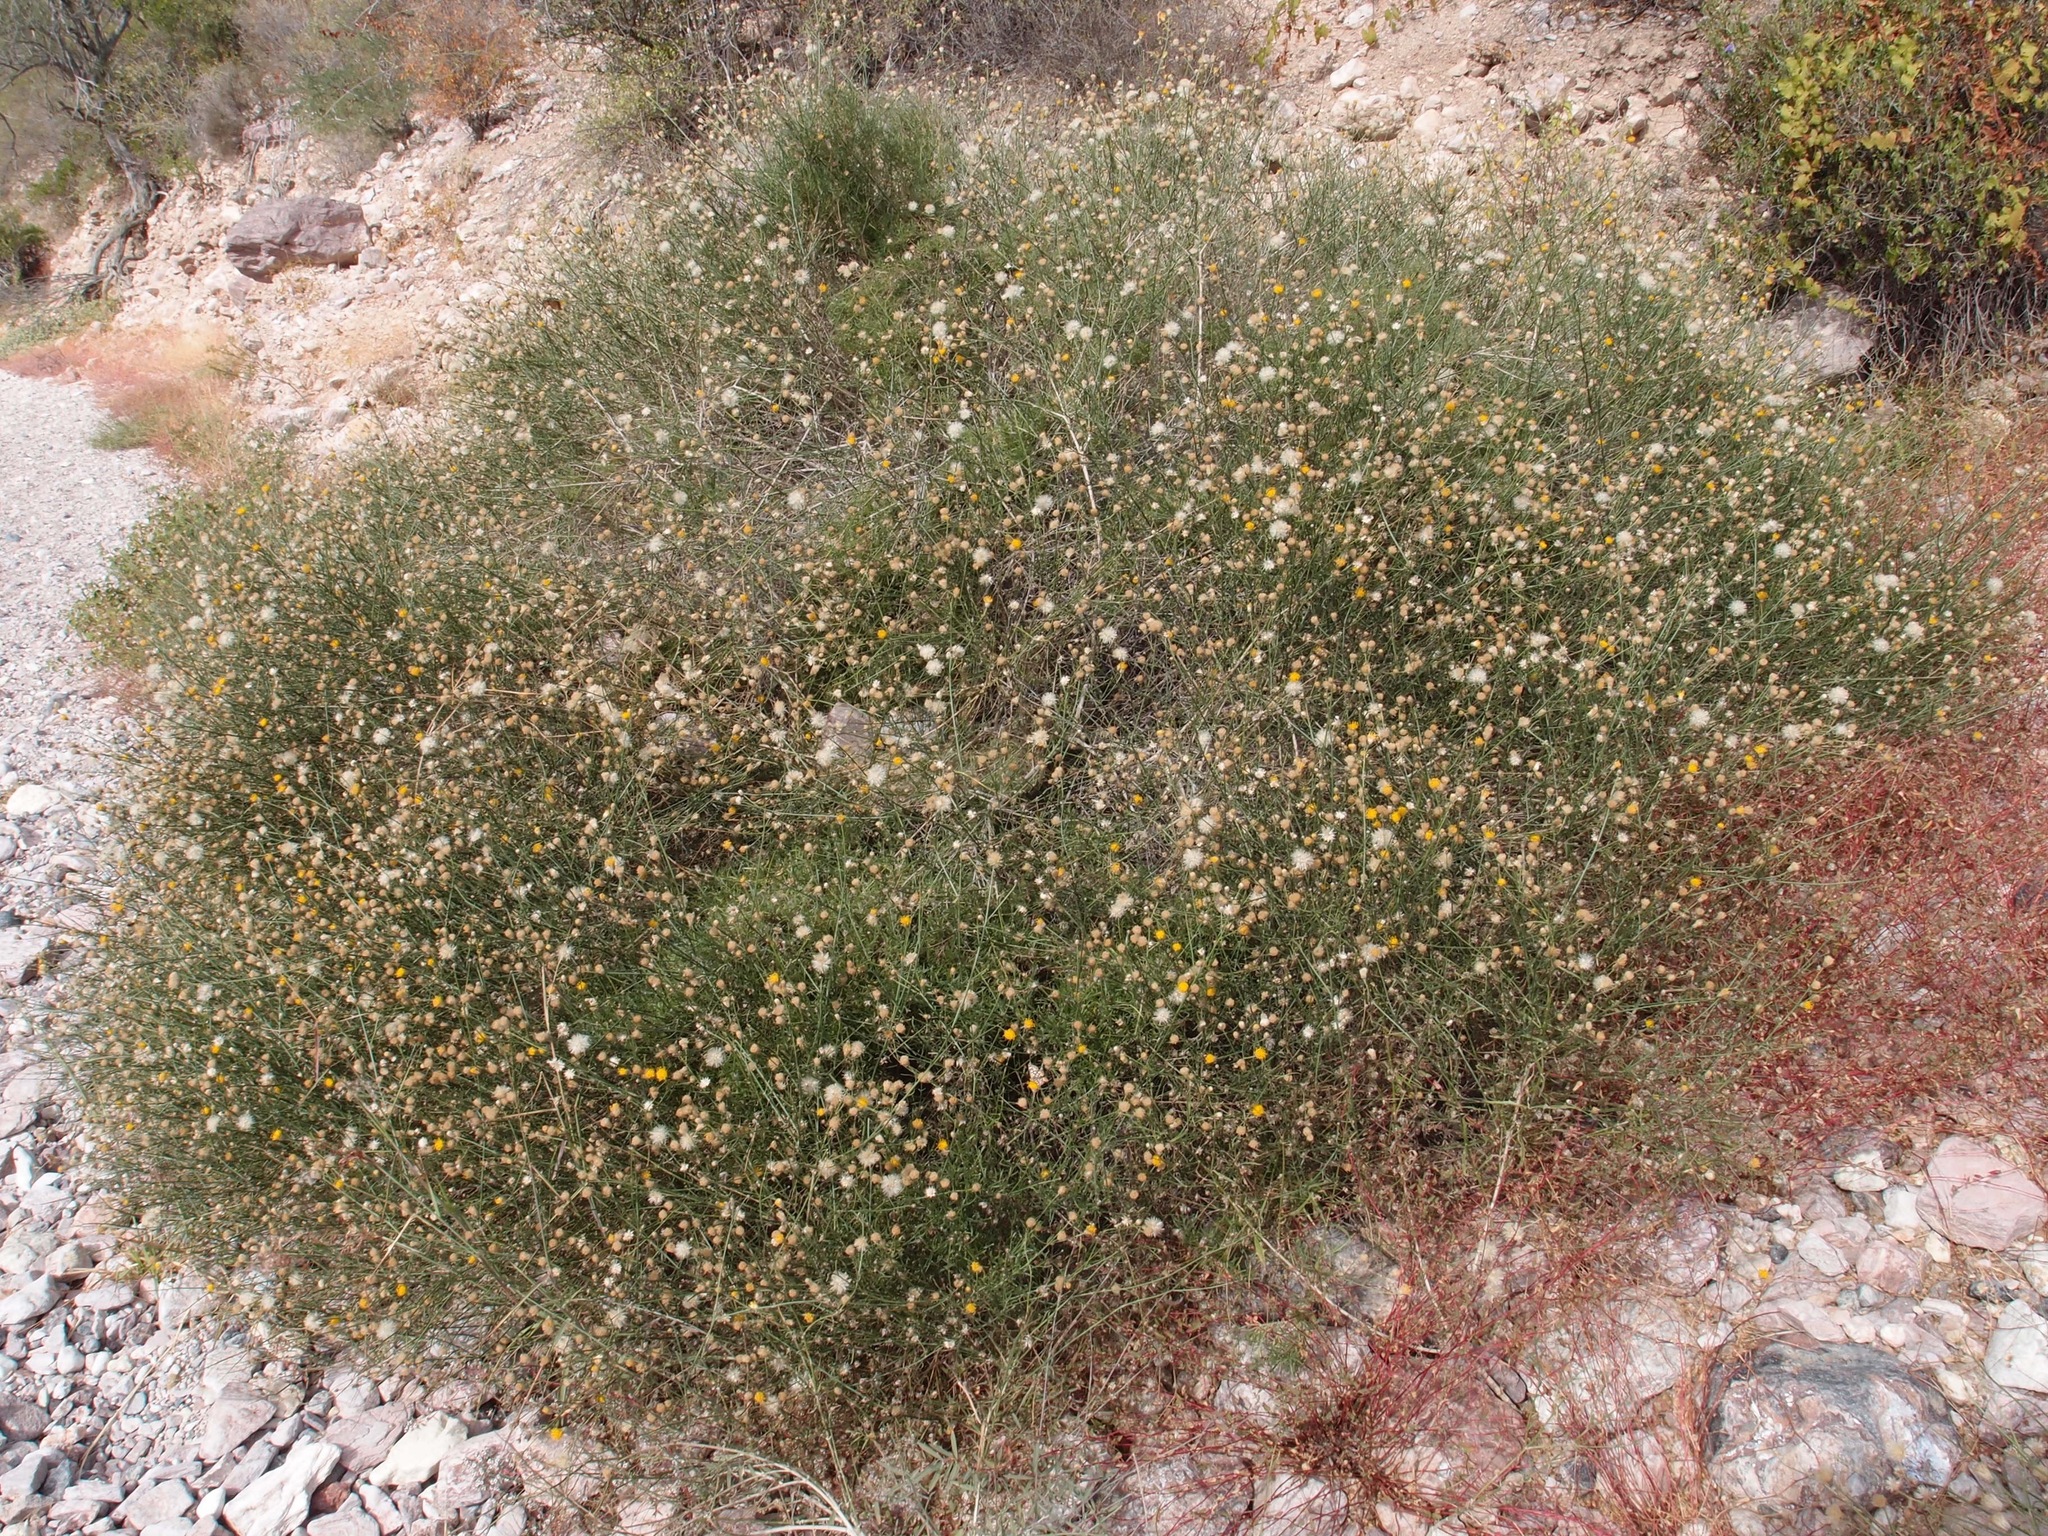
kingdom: Plantae
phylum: Tracheophyta
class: Magnoliopsida
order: Asterales
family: Asteraceae
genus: Bebbia
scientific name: Bebbia juncea
